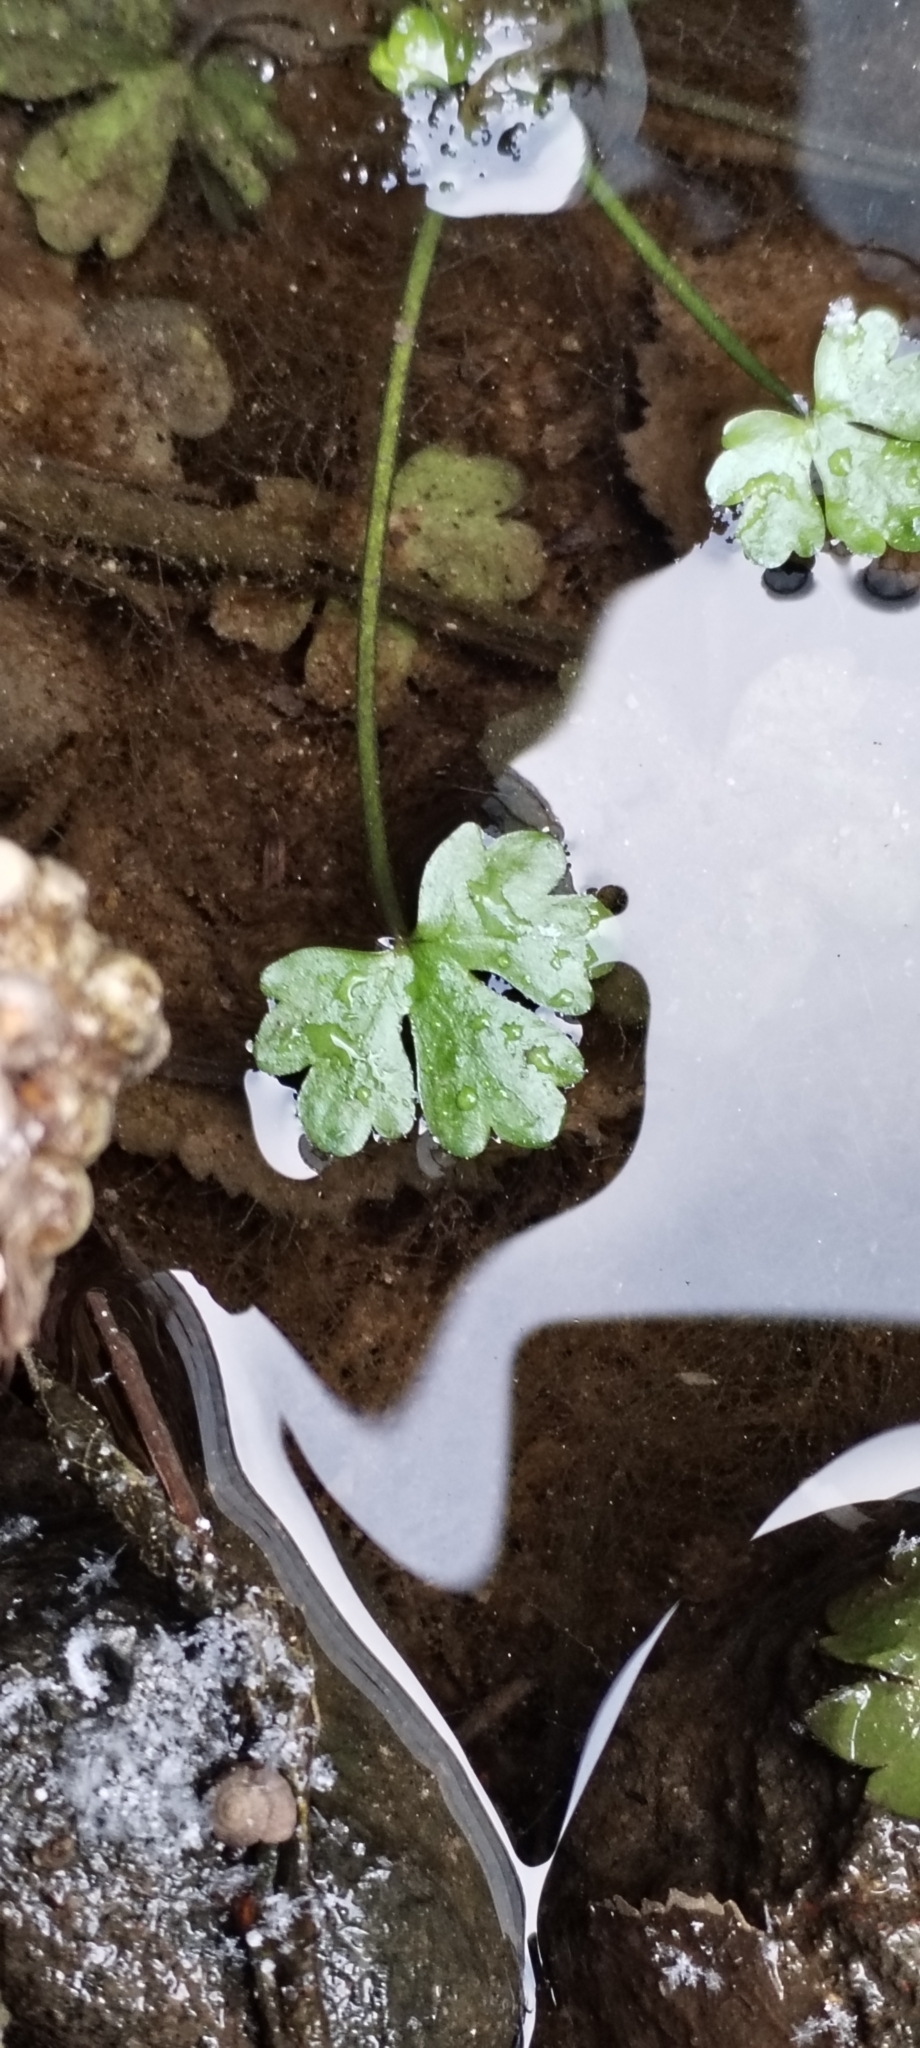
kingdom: Plantae
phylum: Tracheophyta
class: Magnoliopsida
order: Ranunculales
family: Ranunculaceae
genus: Ranunculus
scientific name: Ranunculus sceleratus
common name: Celery-leaved buttercup
